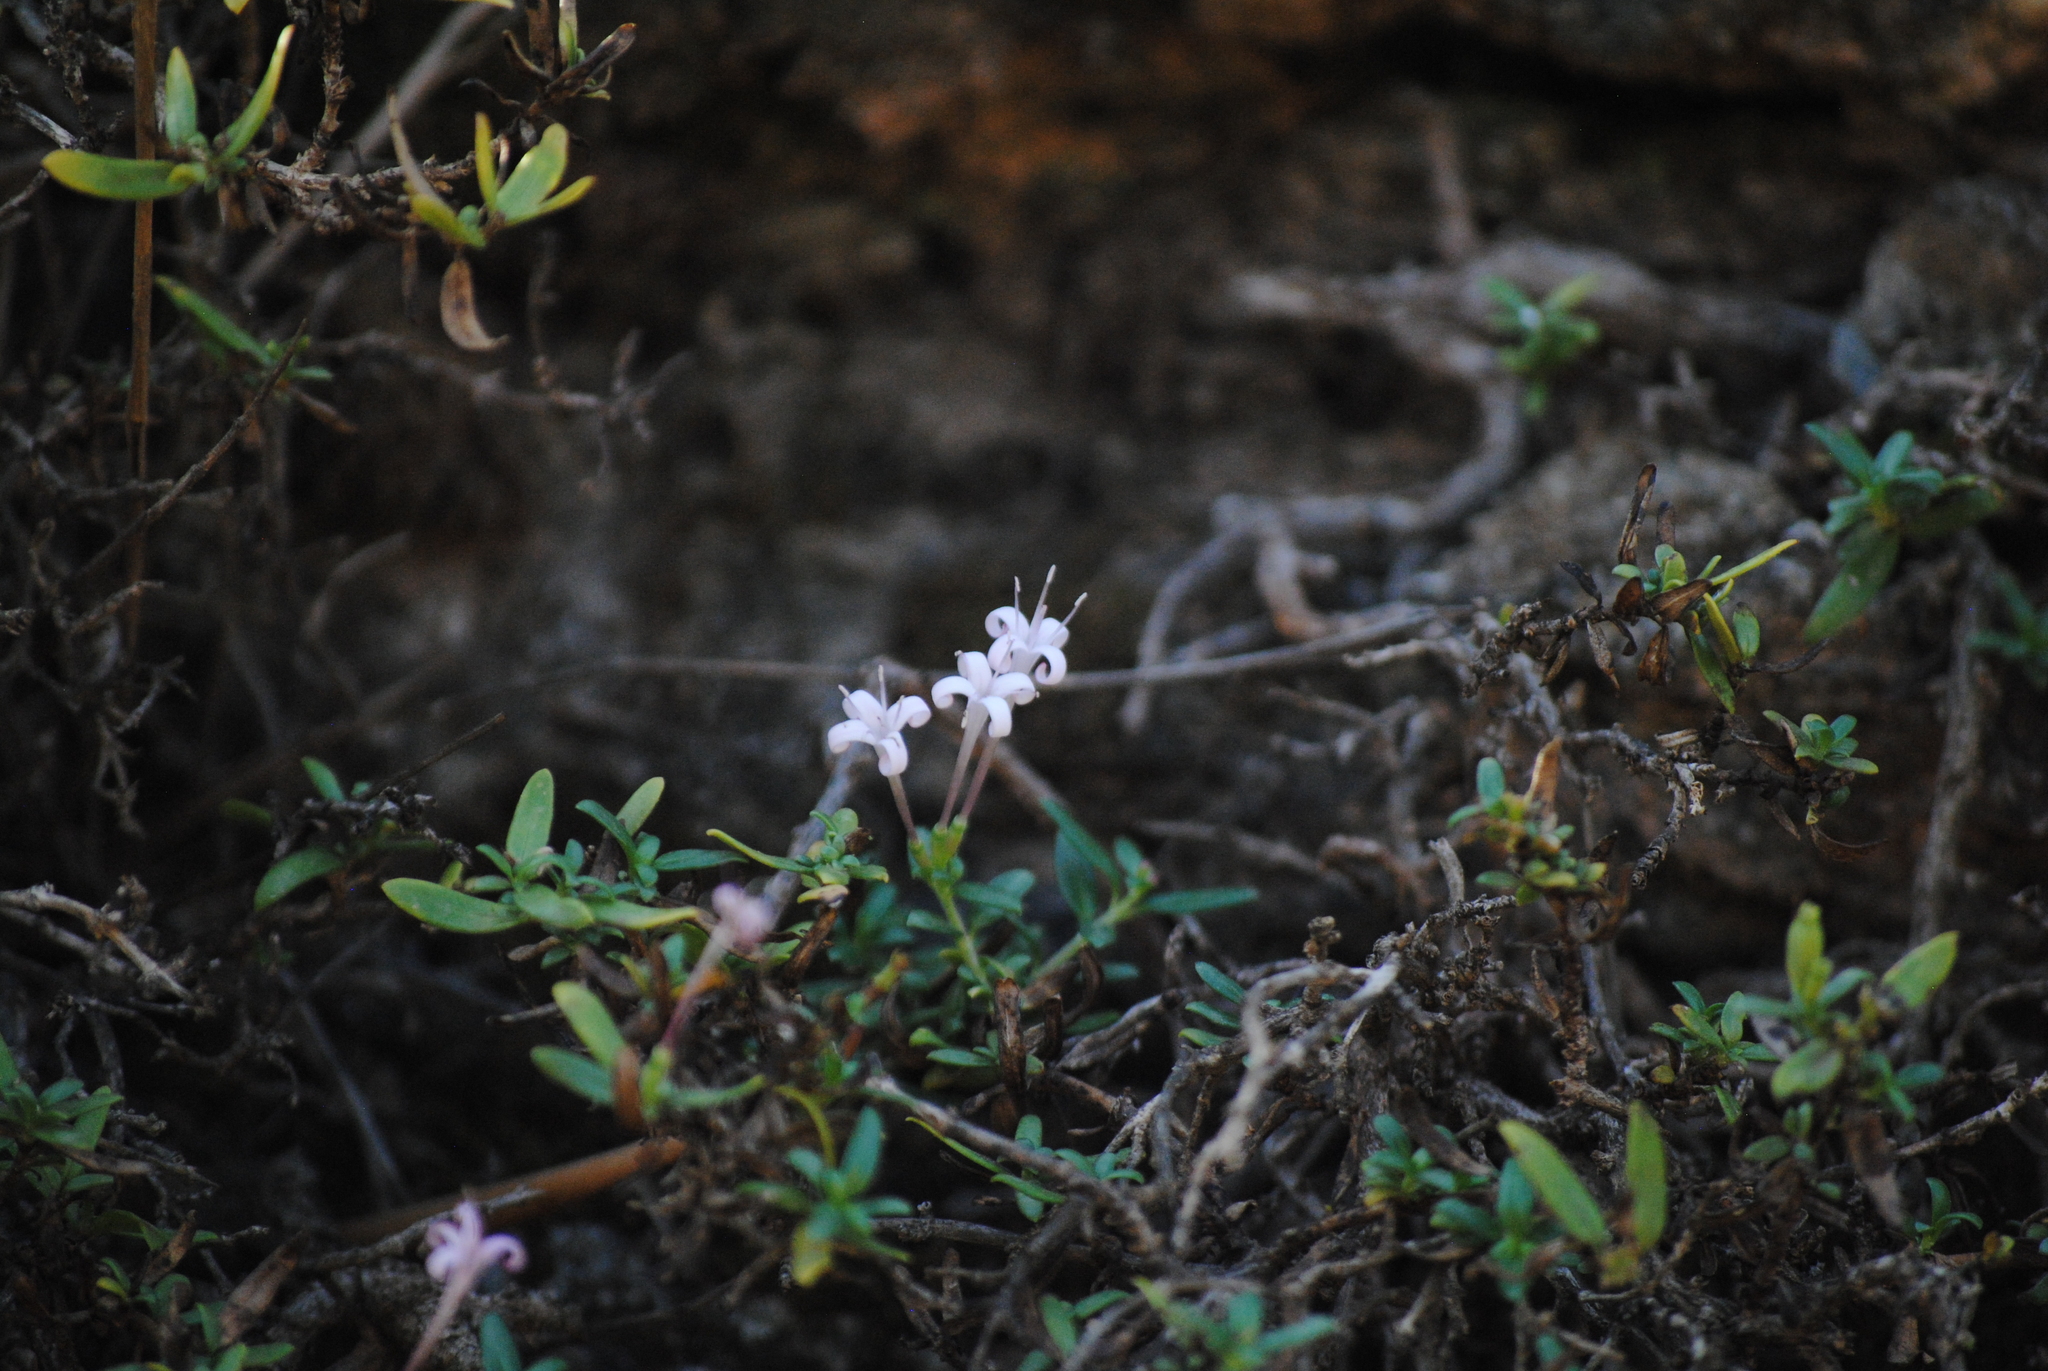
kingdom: Plantae
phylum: Tracheophyta
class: Magnoliopsida
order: Gentianales
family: Rubiaceae
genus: Plocama
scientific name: Plocama calabrica
